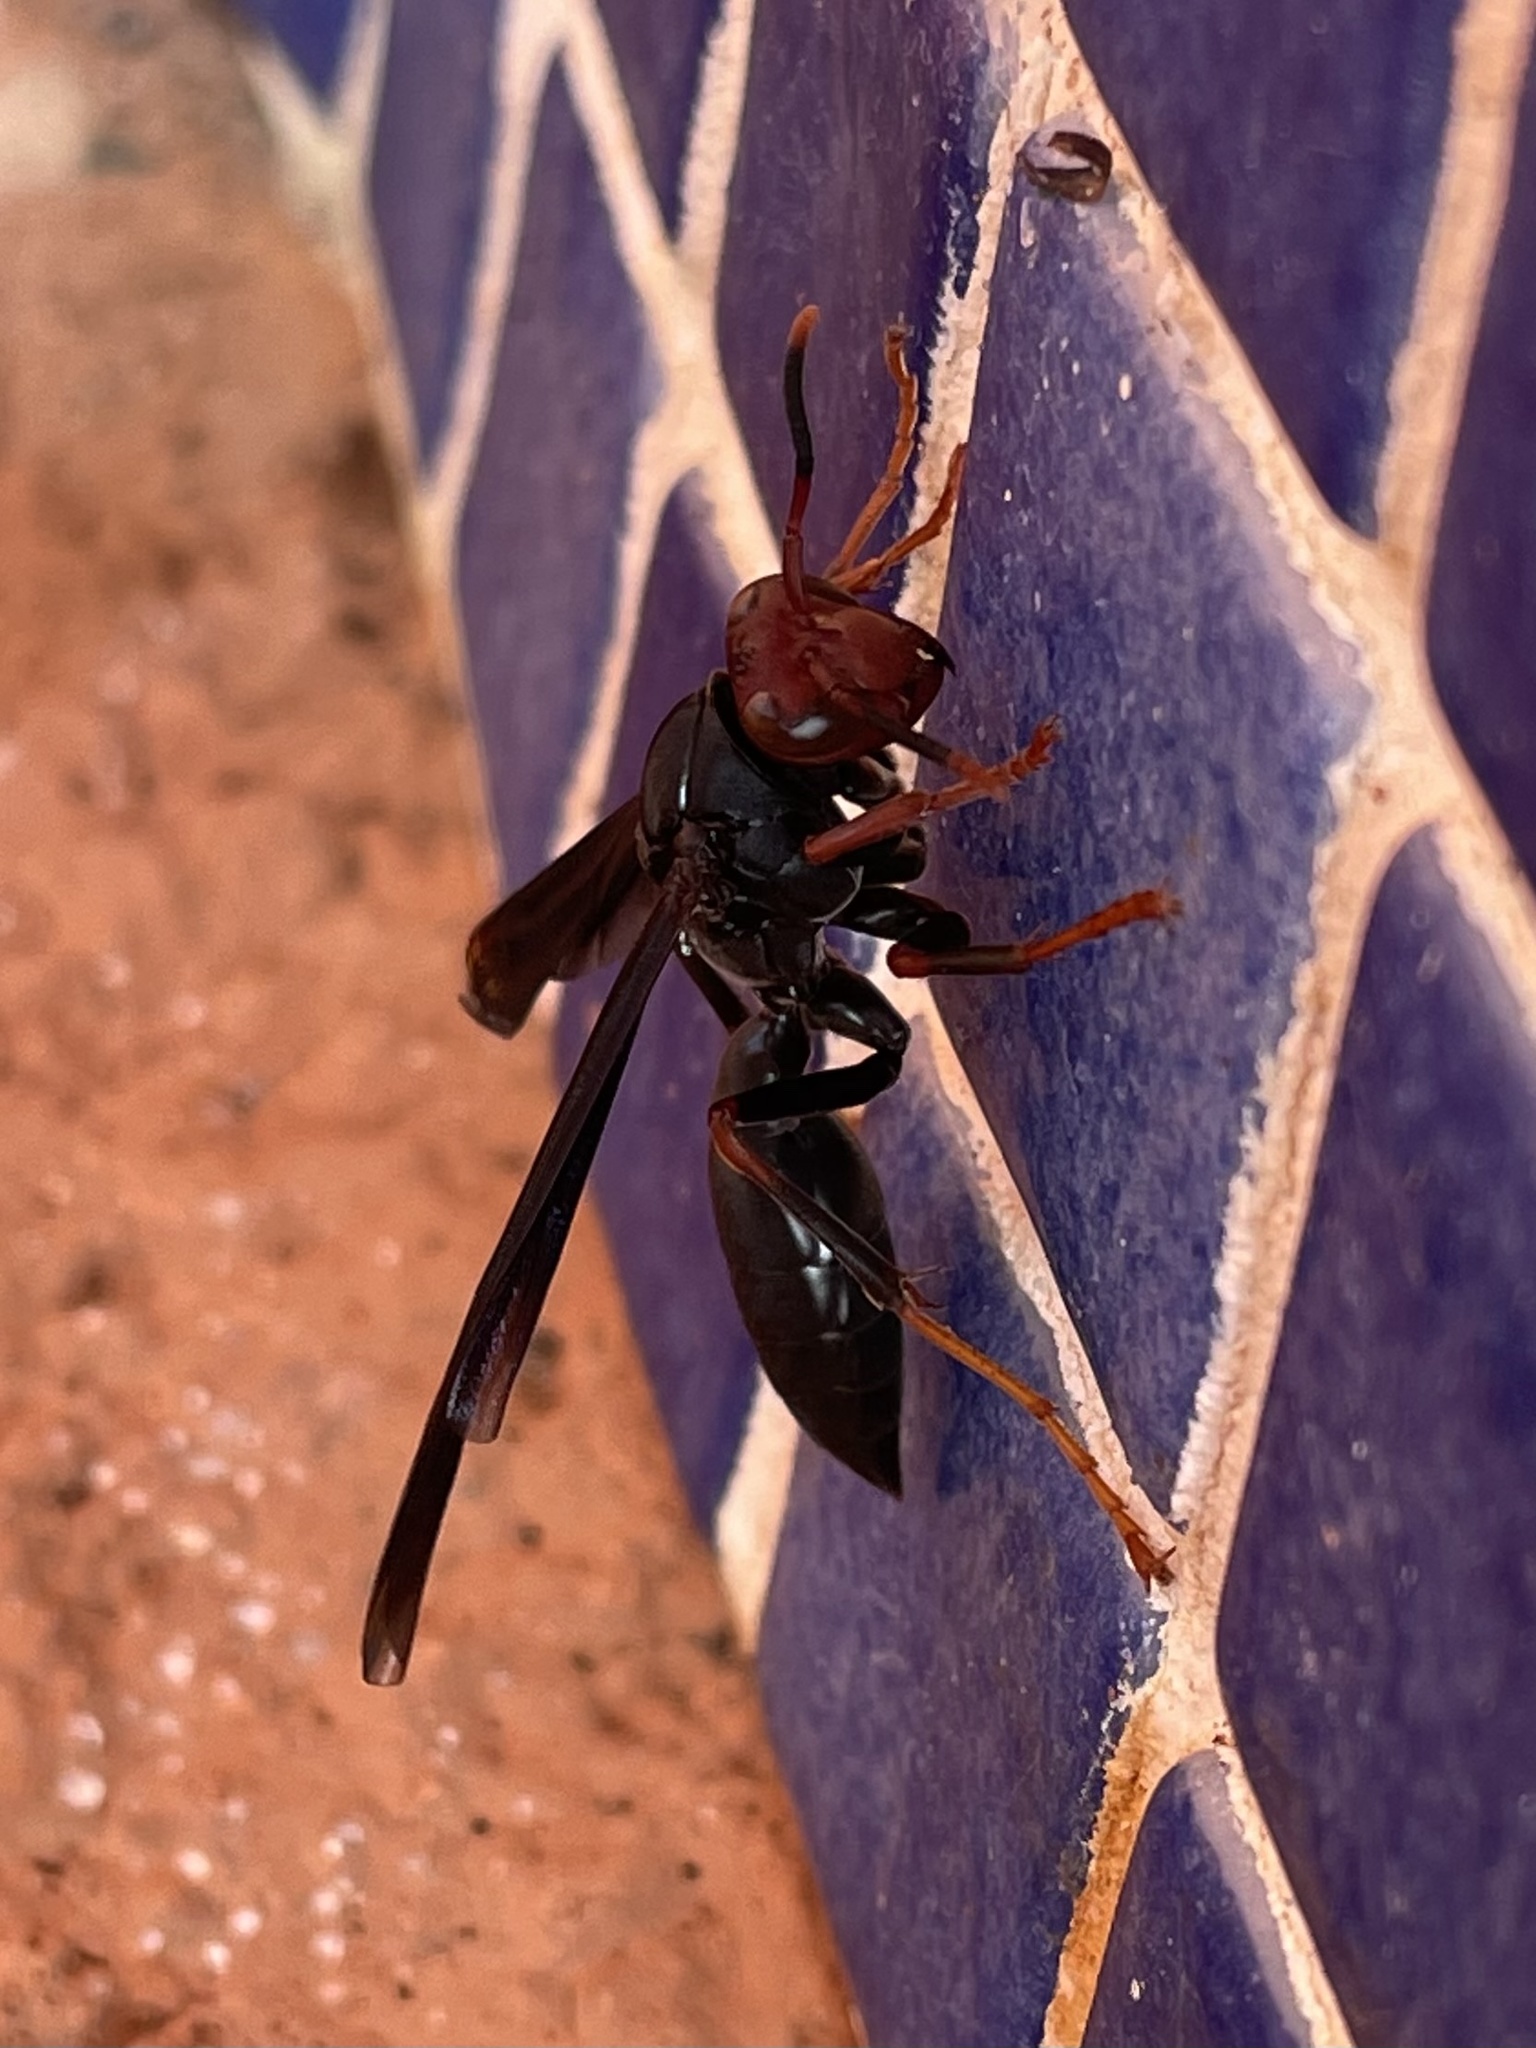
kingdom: Animalia
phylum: Arthropoda
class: Insecta
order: Hymenoptera
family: Eumenidae
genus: Polistes
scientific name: Polistes erythrocephalus
